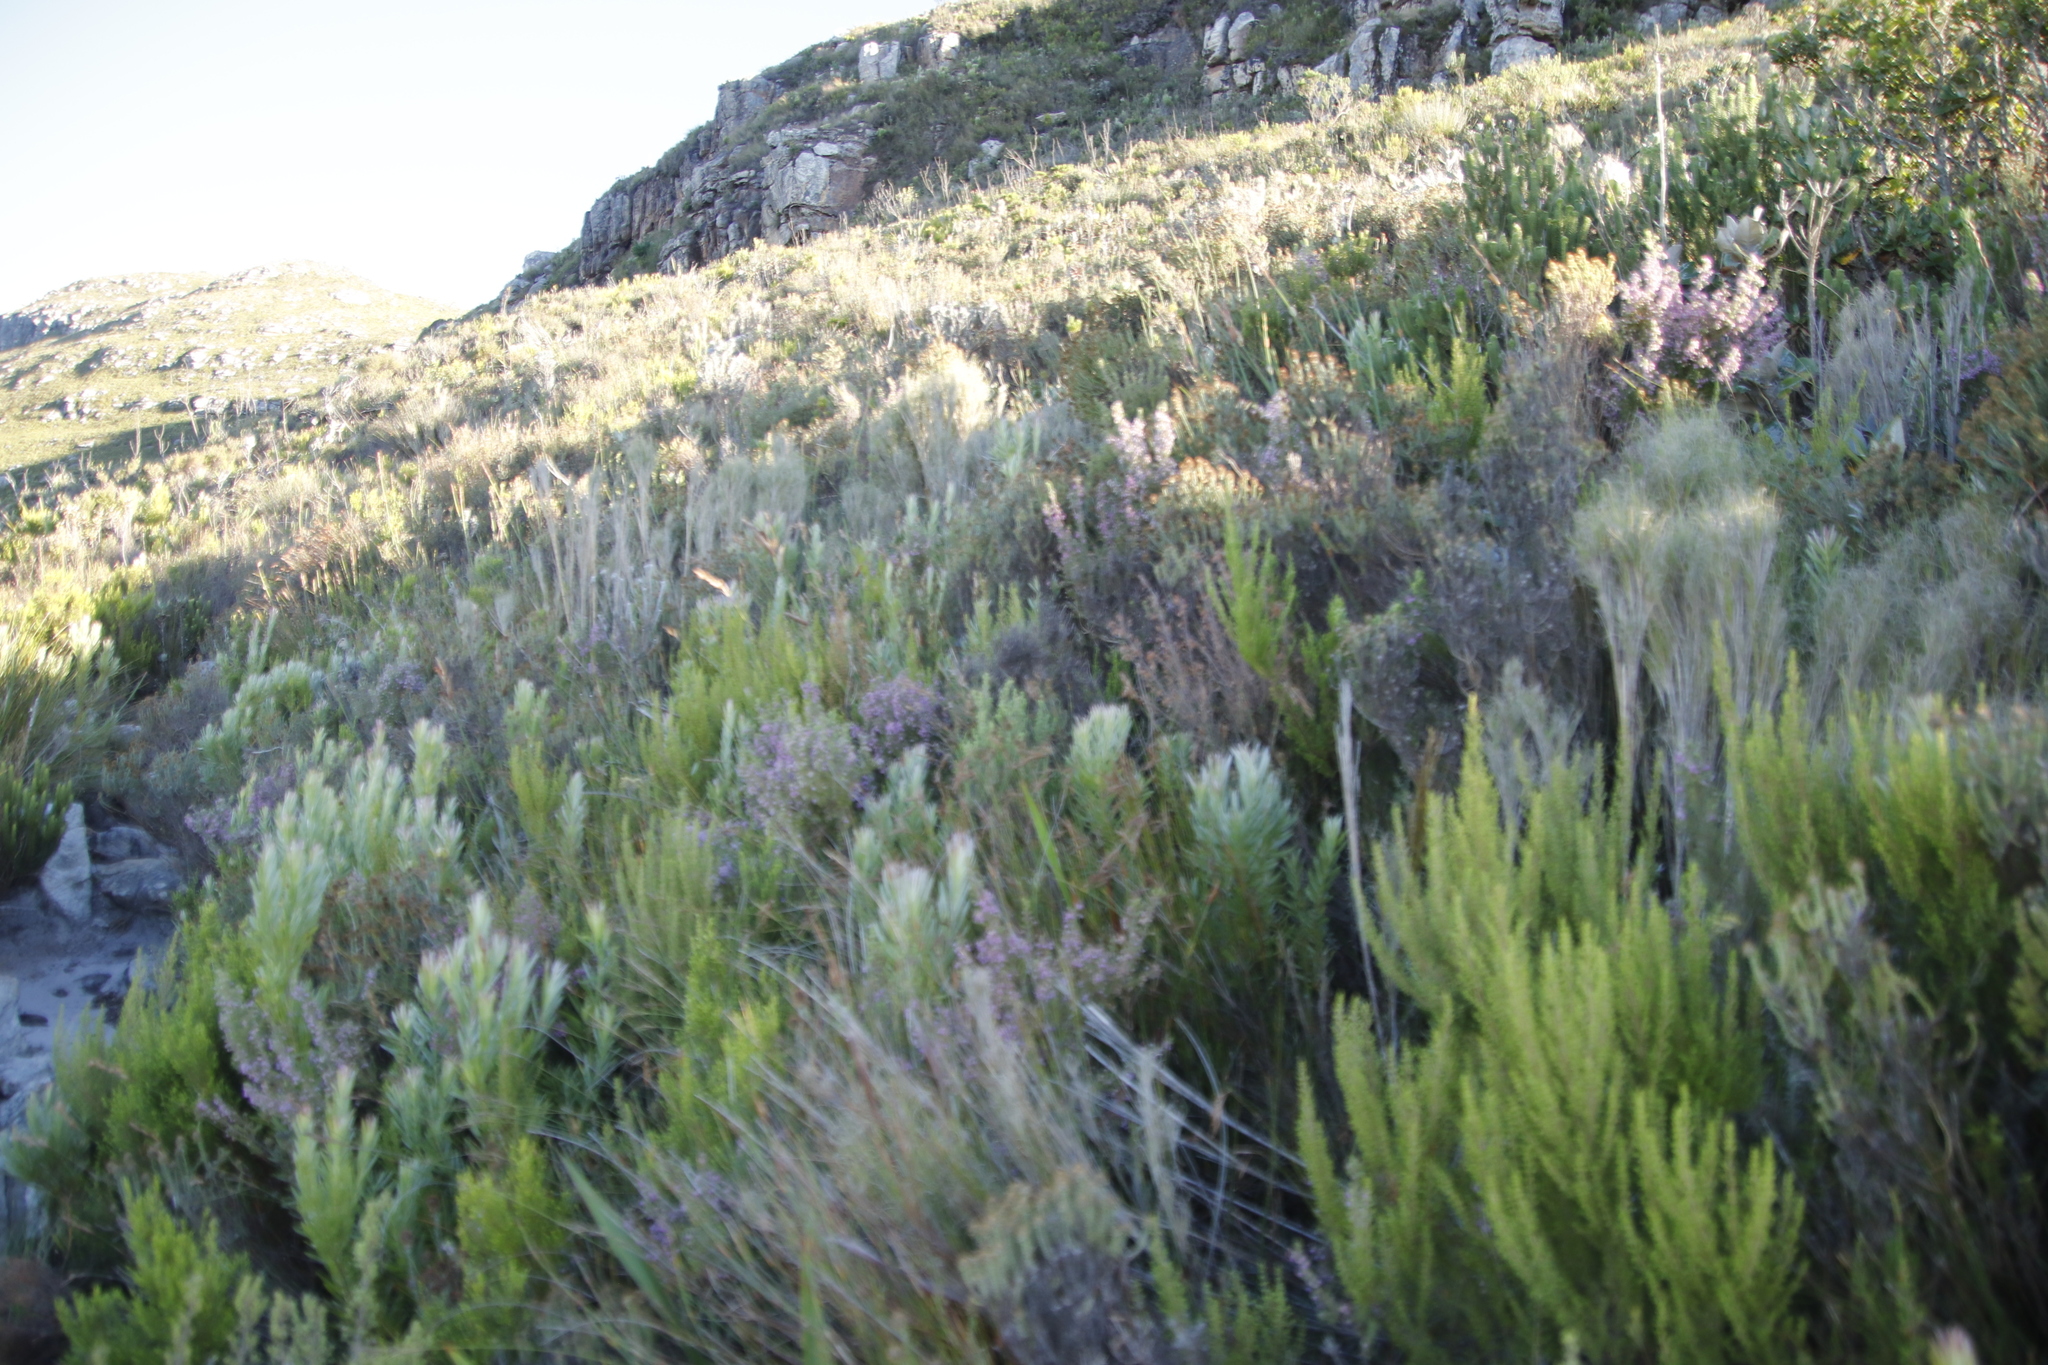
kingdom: Plantae
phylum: Tracheophyta
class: Magnoliopsida
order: Ericales
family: Ericaceae
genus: Erica
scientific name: Erica hirtiflora
